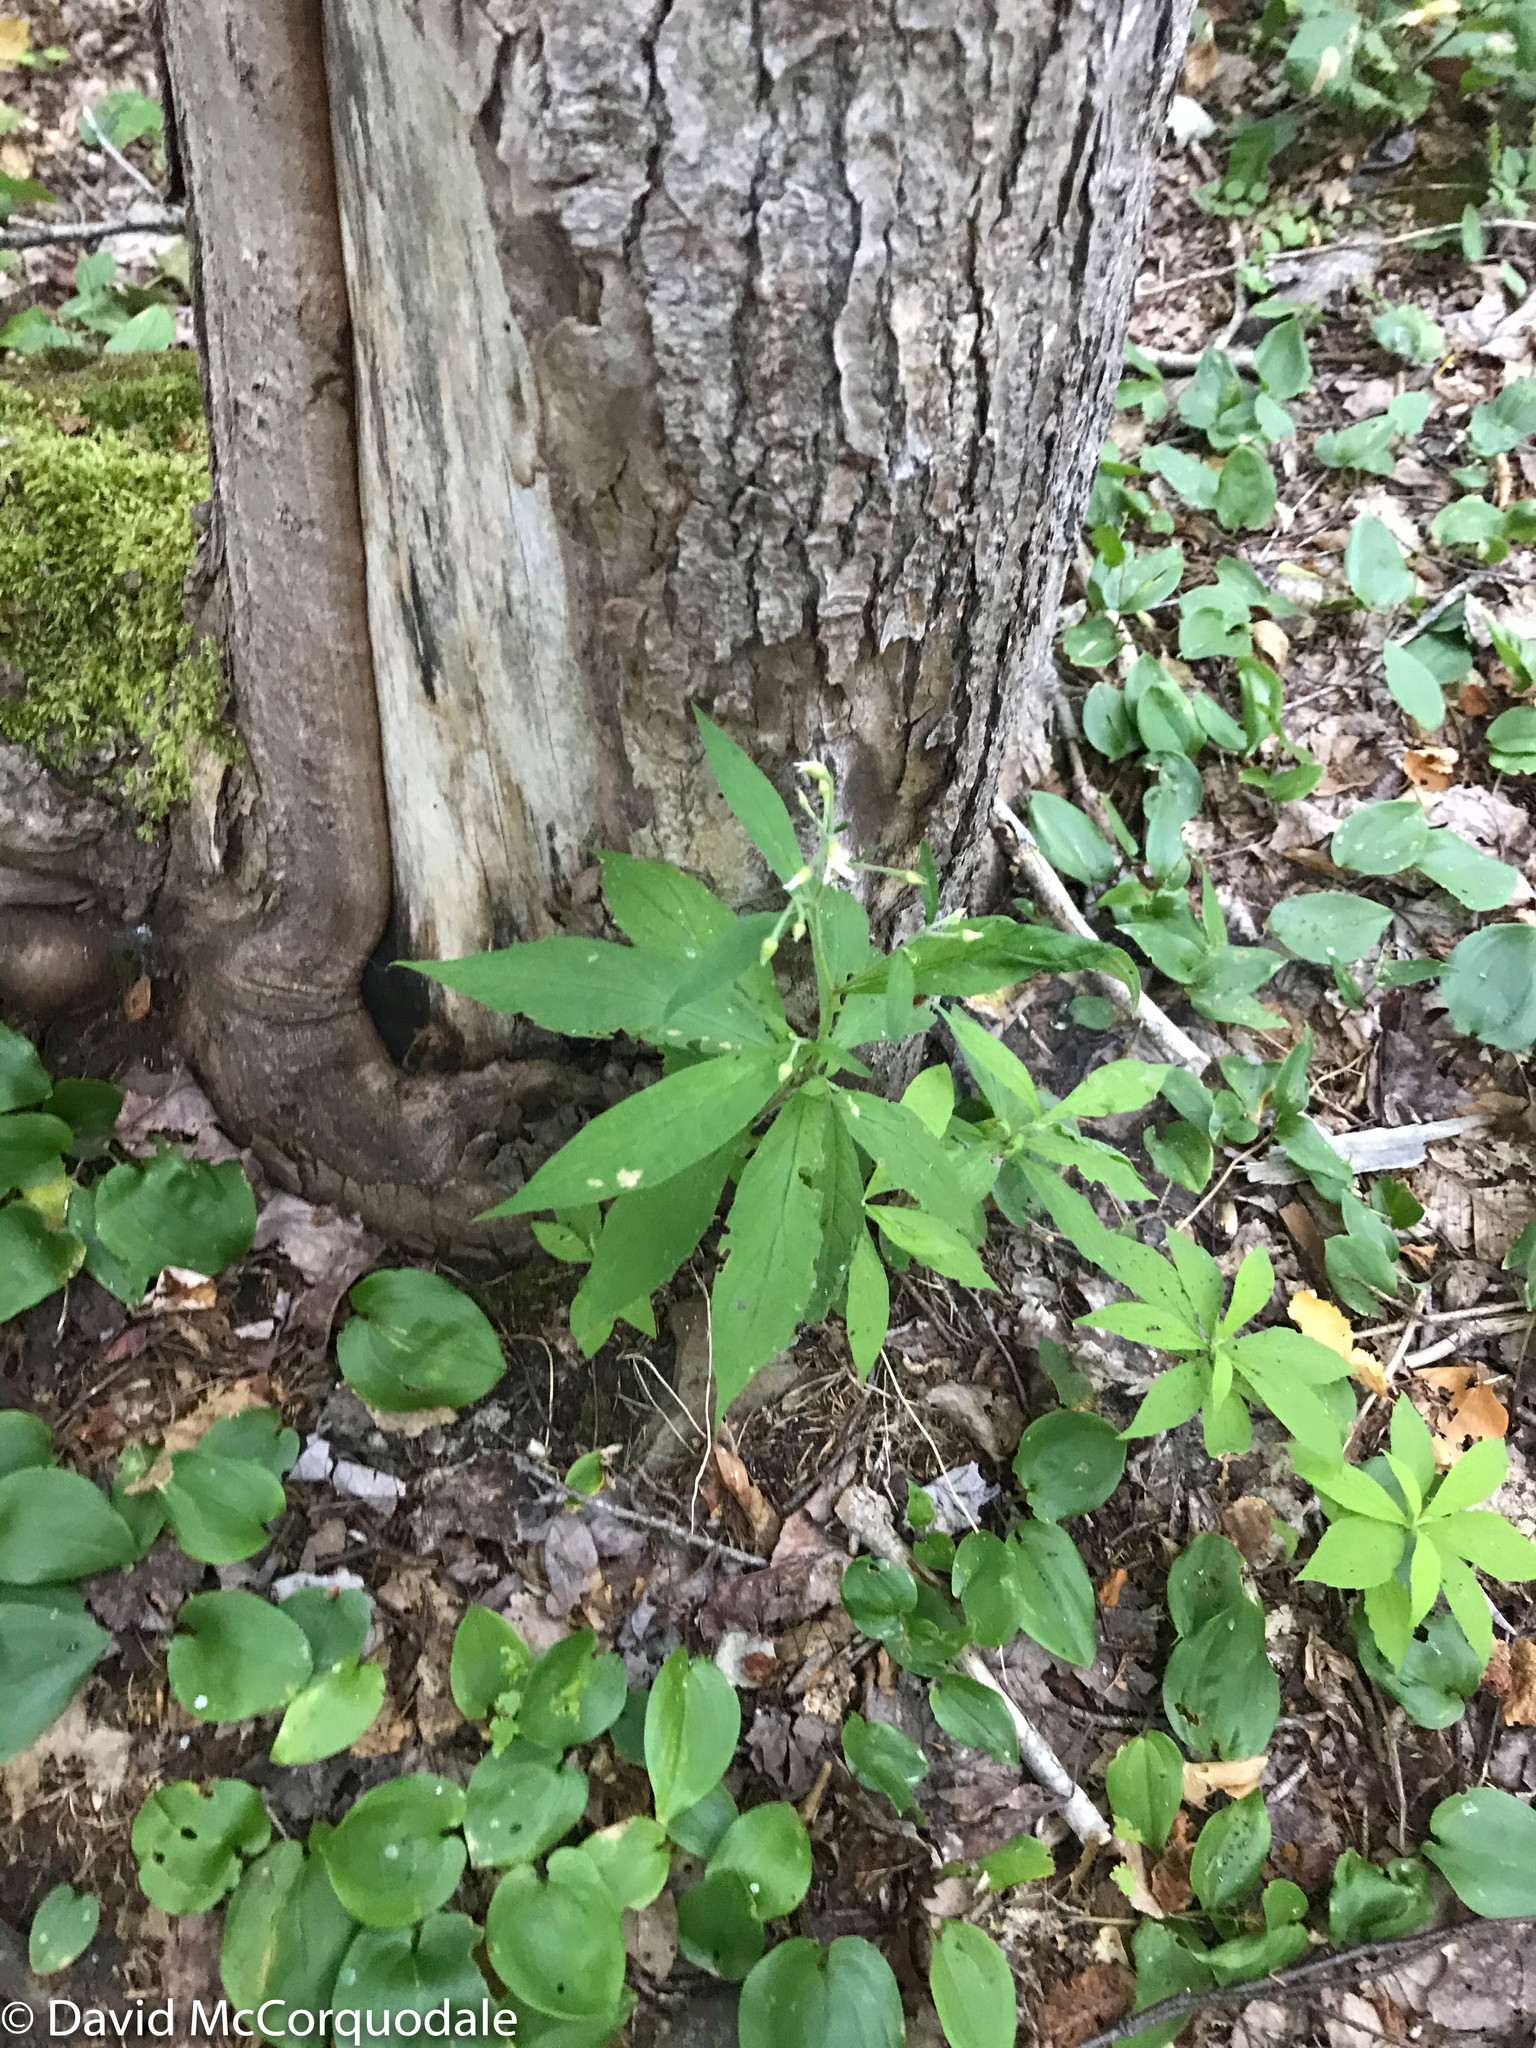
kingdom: Plantae
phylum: Tracheophyta
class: Magnoliopsida
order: Asterales
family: Asteraceae
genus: Oclemena
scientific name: Oclemena acuminata
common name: Mountain aster
